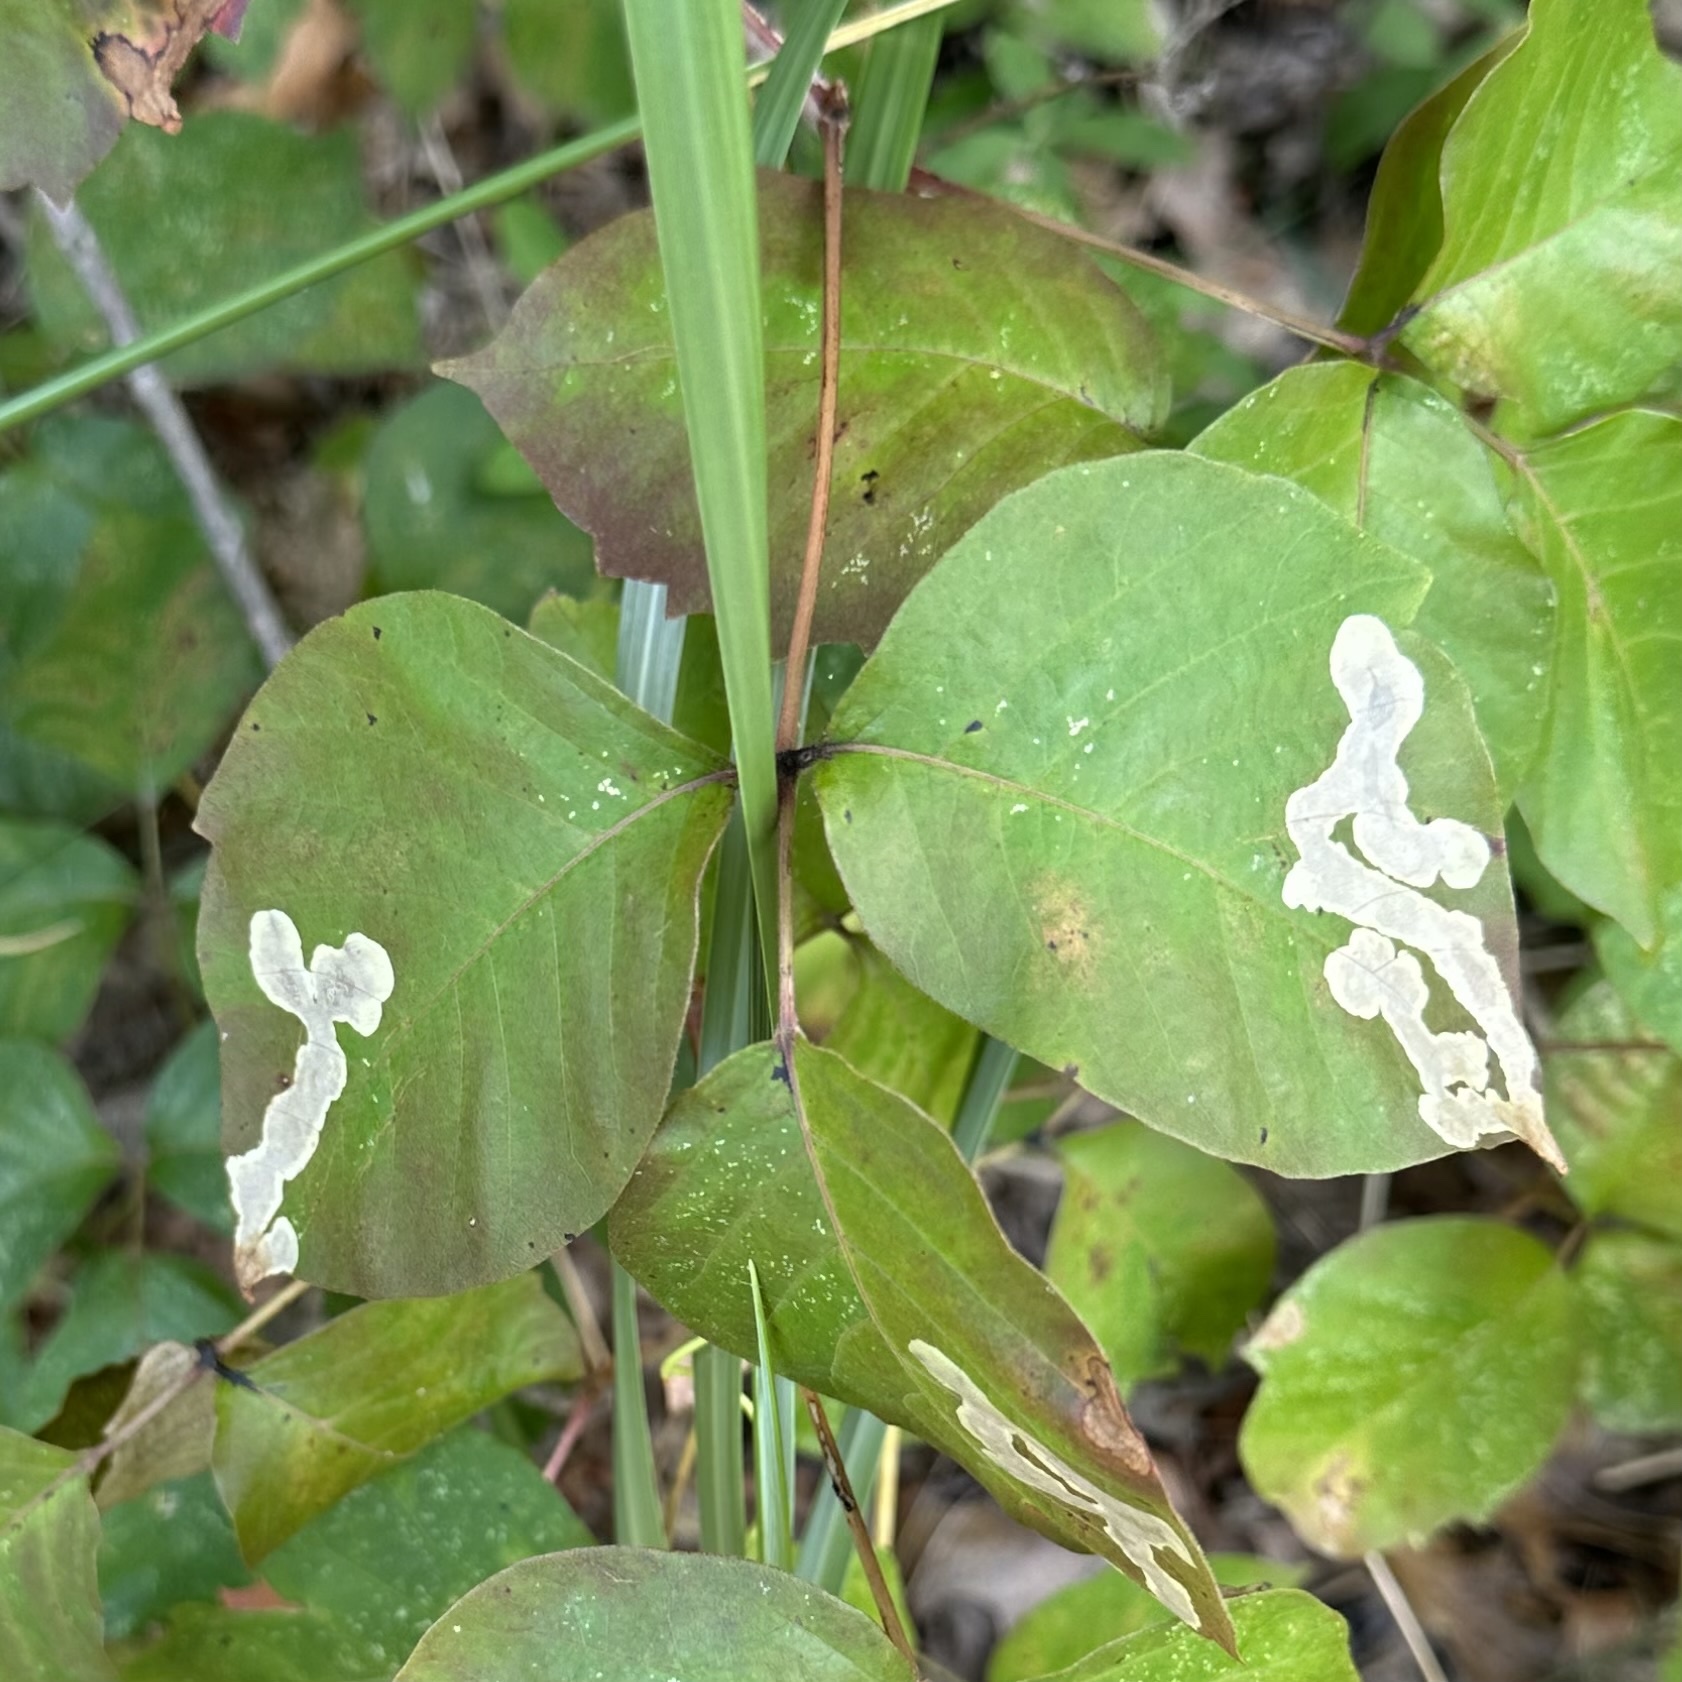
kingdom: Animalia
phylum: Arthropoda
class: Insecta
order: Lepidoptera
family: Gracillariidae
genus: Cameraria
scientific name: Cameraria guttifinitella
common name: Poison ivy leaf-miner moth
